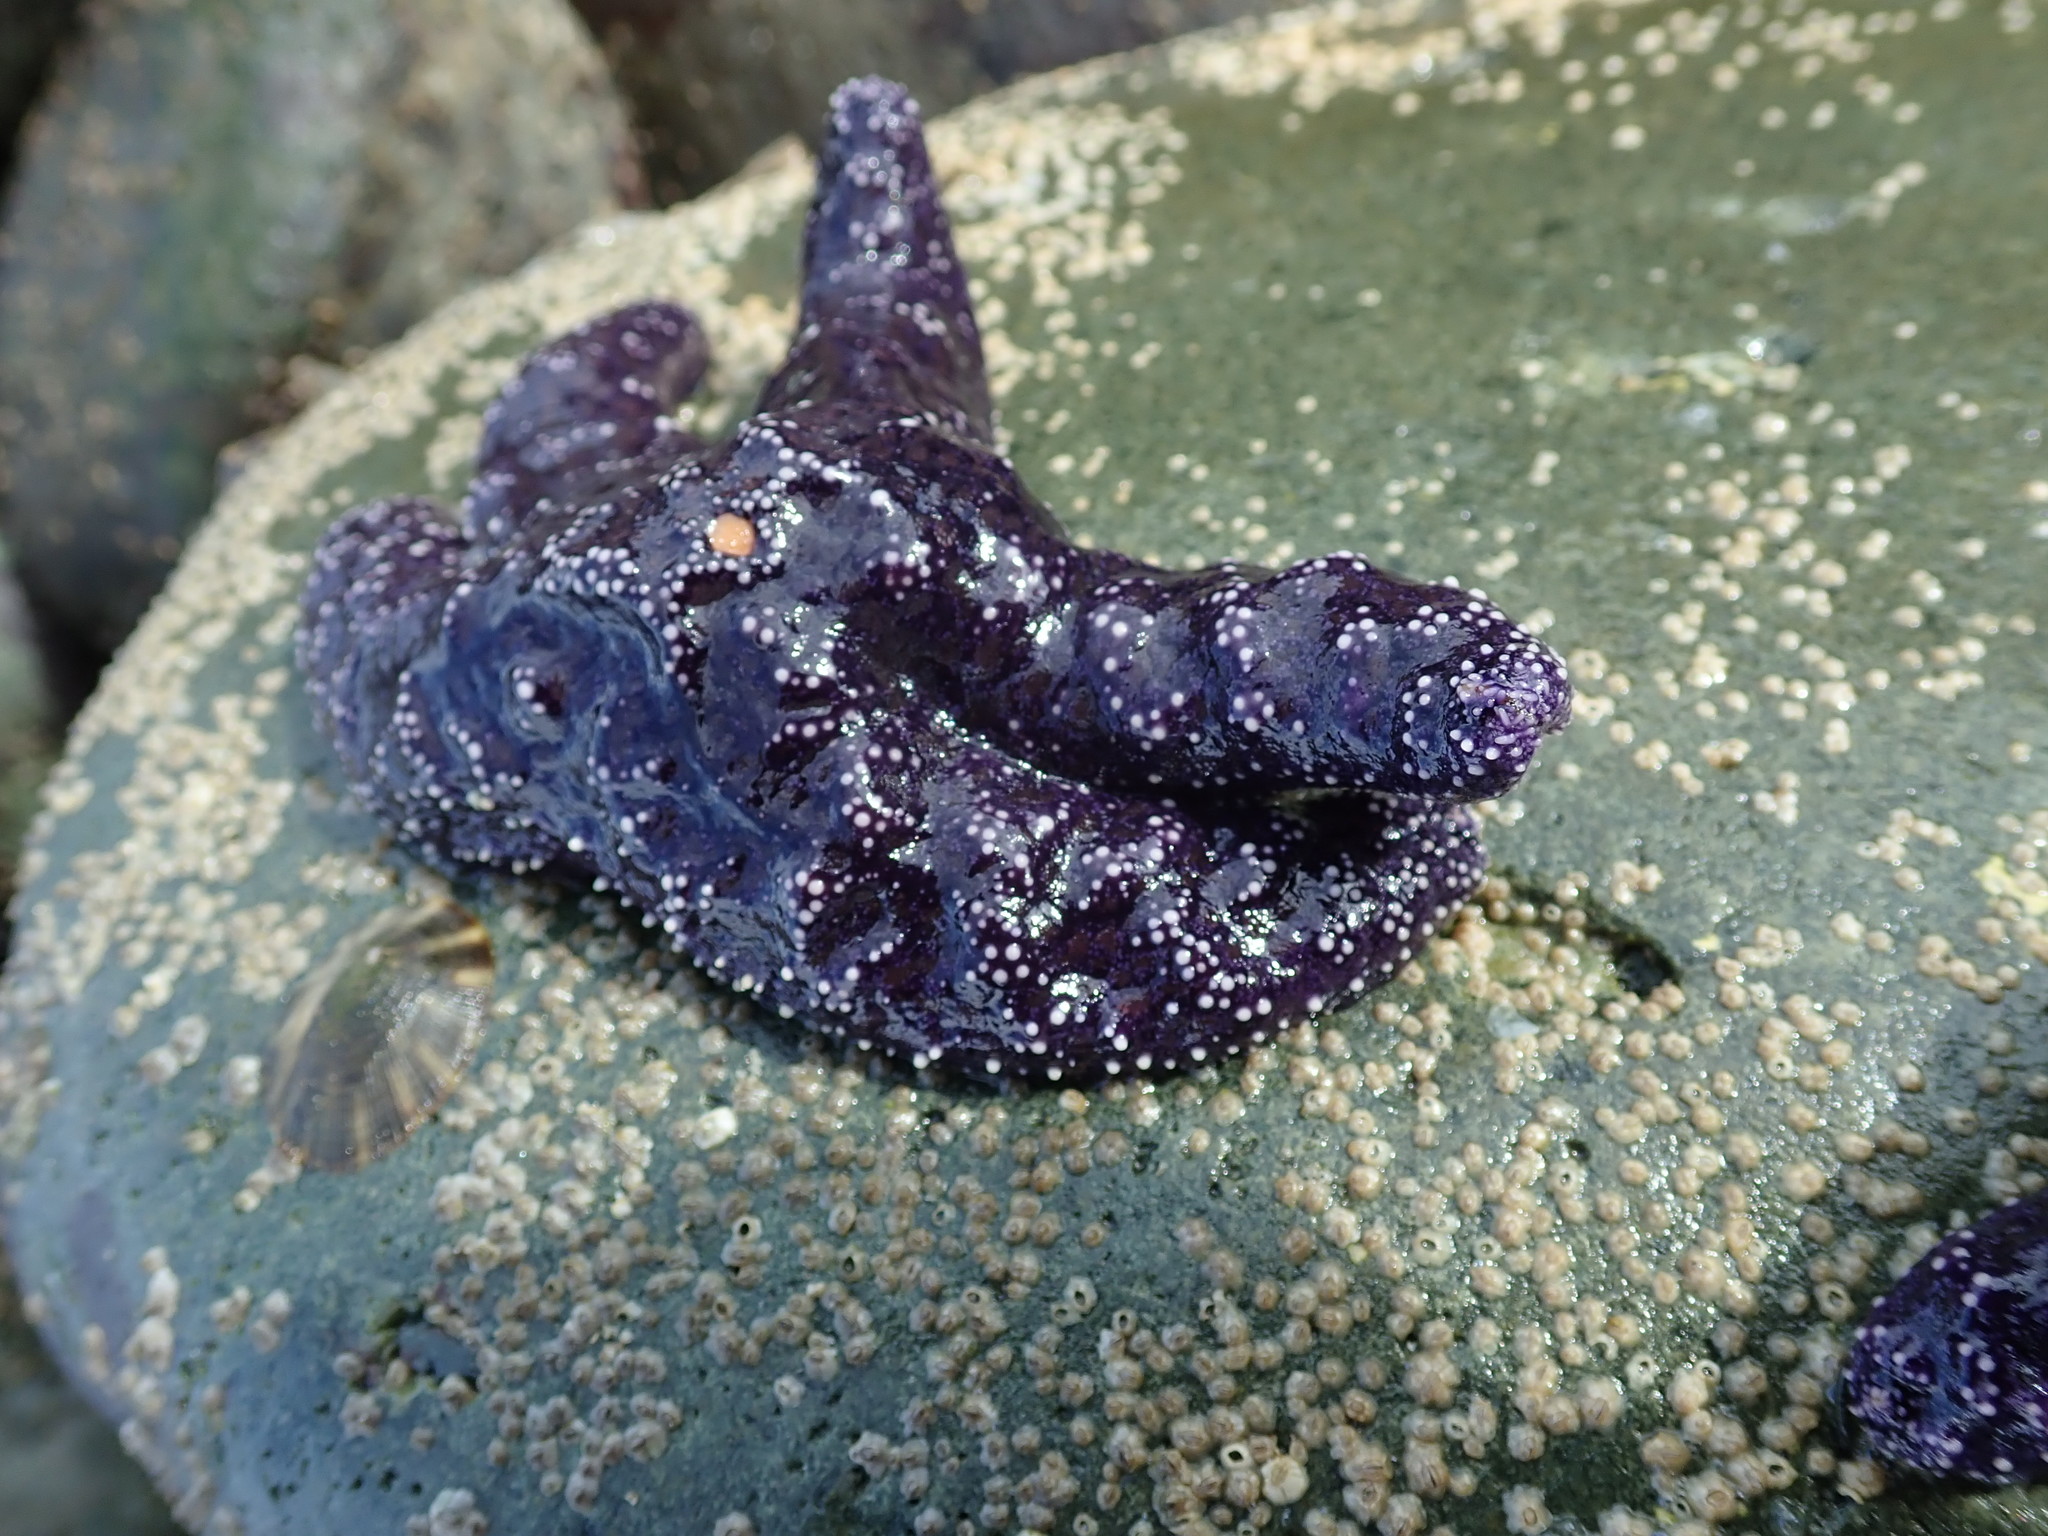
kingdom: Animalia
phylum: Echinodermata
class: Asteroidea
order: Forcipulatida
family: Asteriidae
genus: Pisaster
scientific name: Pisaster ochraceus
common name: Ochre stars
